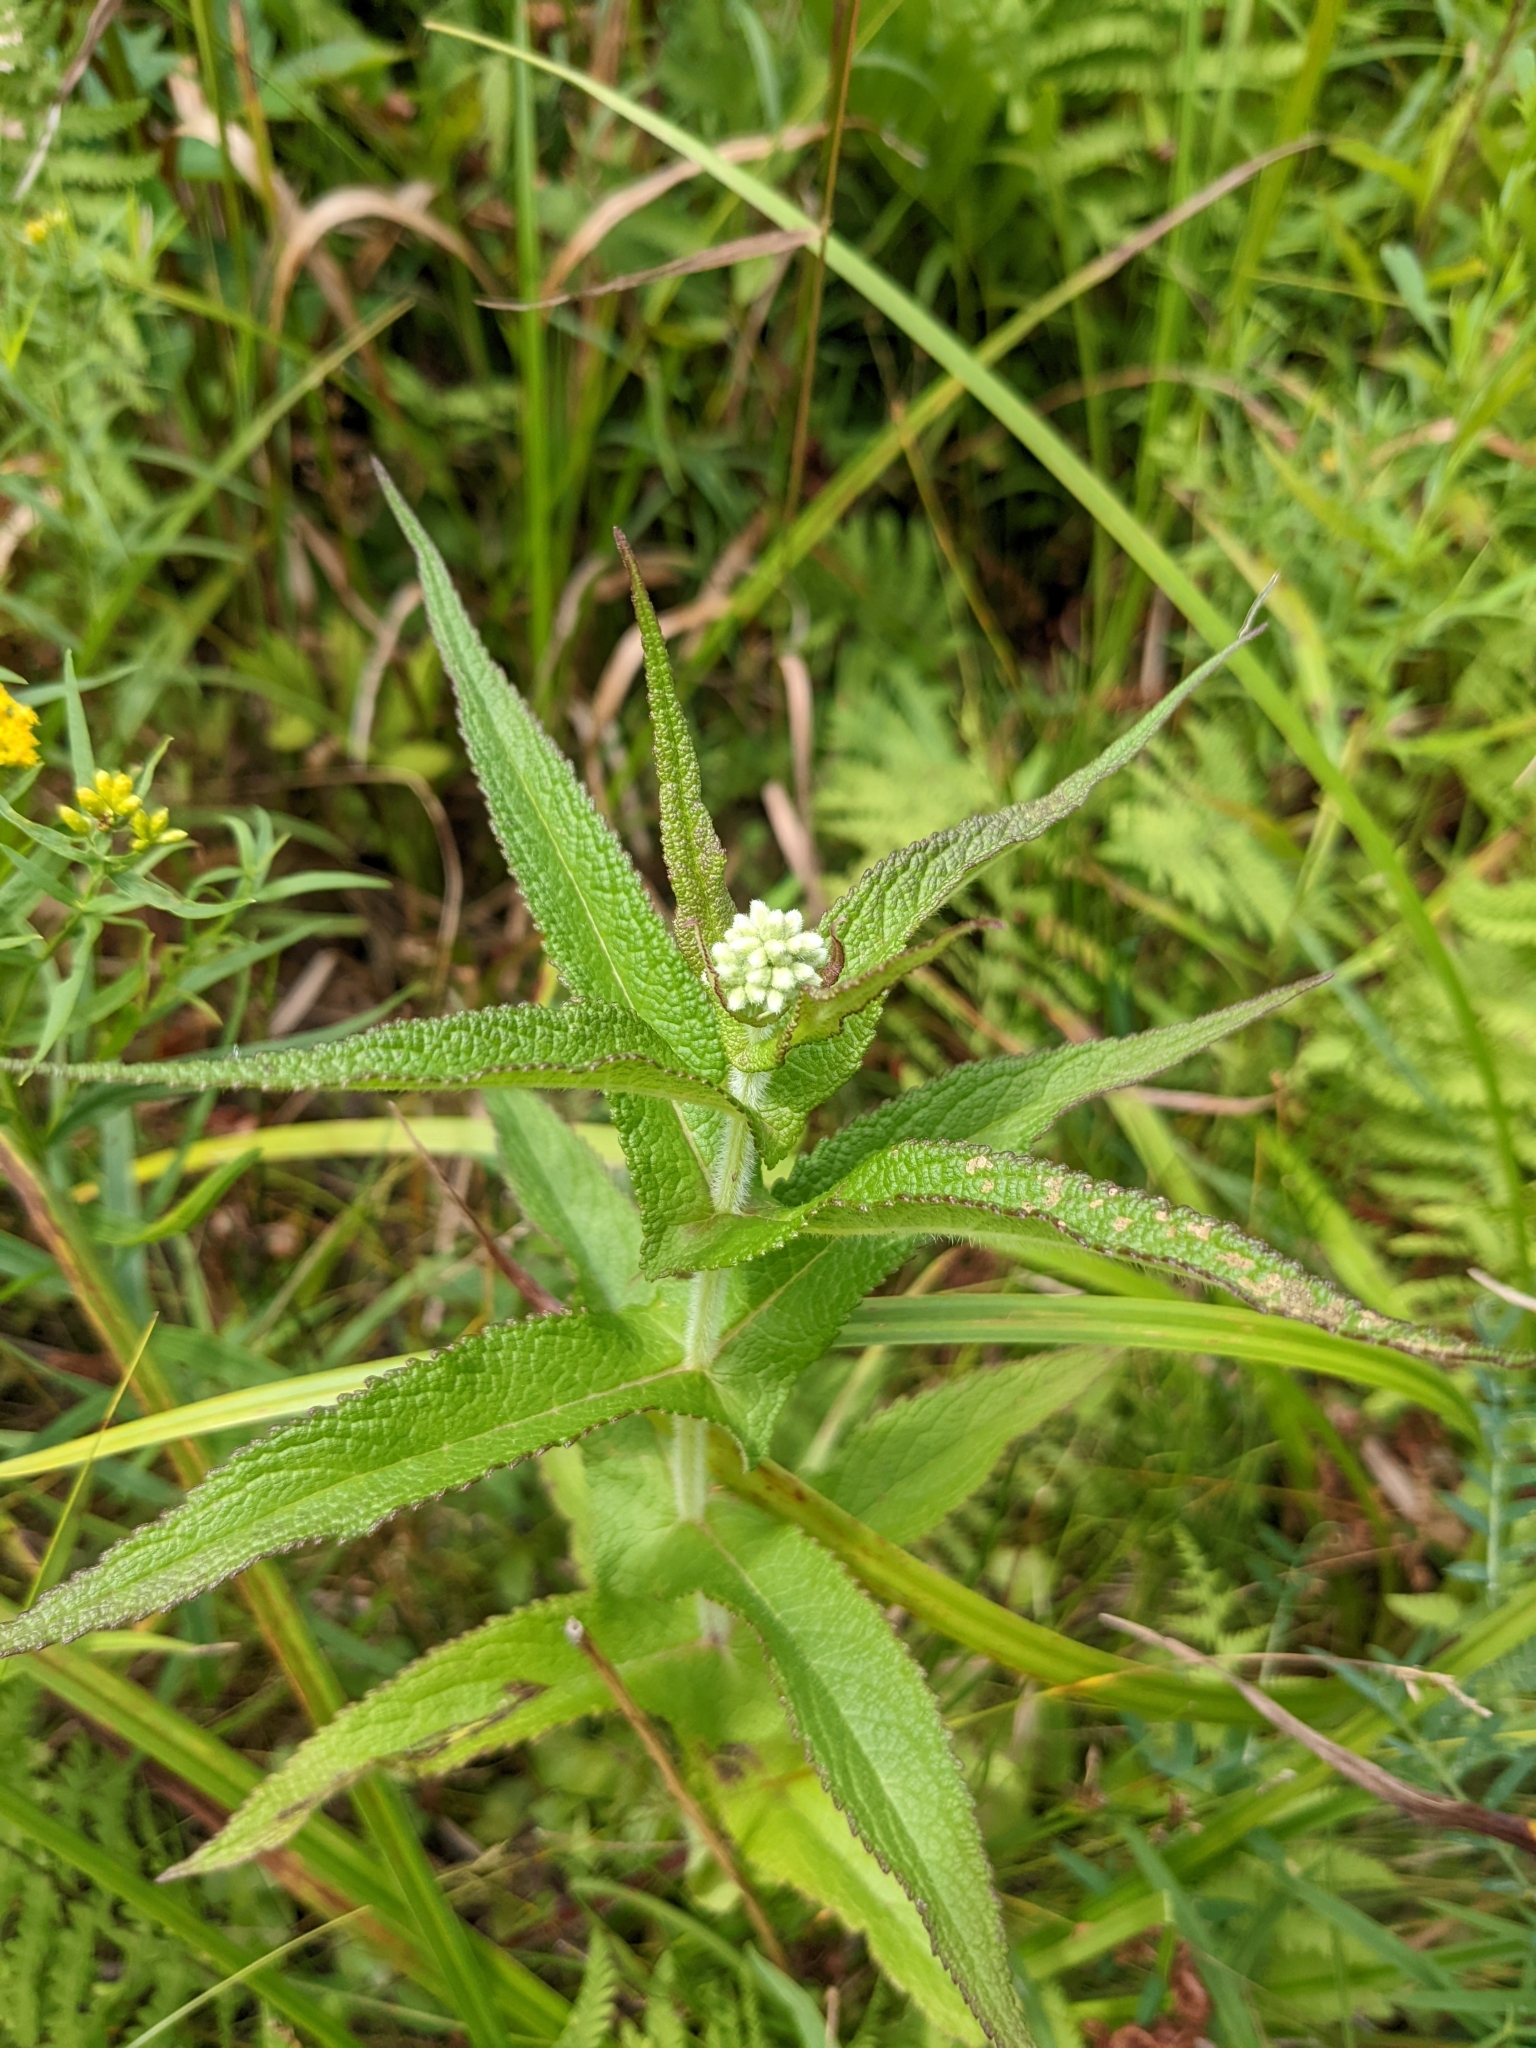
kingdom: Plantae
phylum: Tracheophyta
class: Magnoliopsida
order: Asterales
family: Asteraceae
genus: Eupatorium
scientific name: Eupatorium perfoliatum
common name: Boneset
